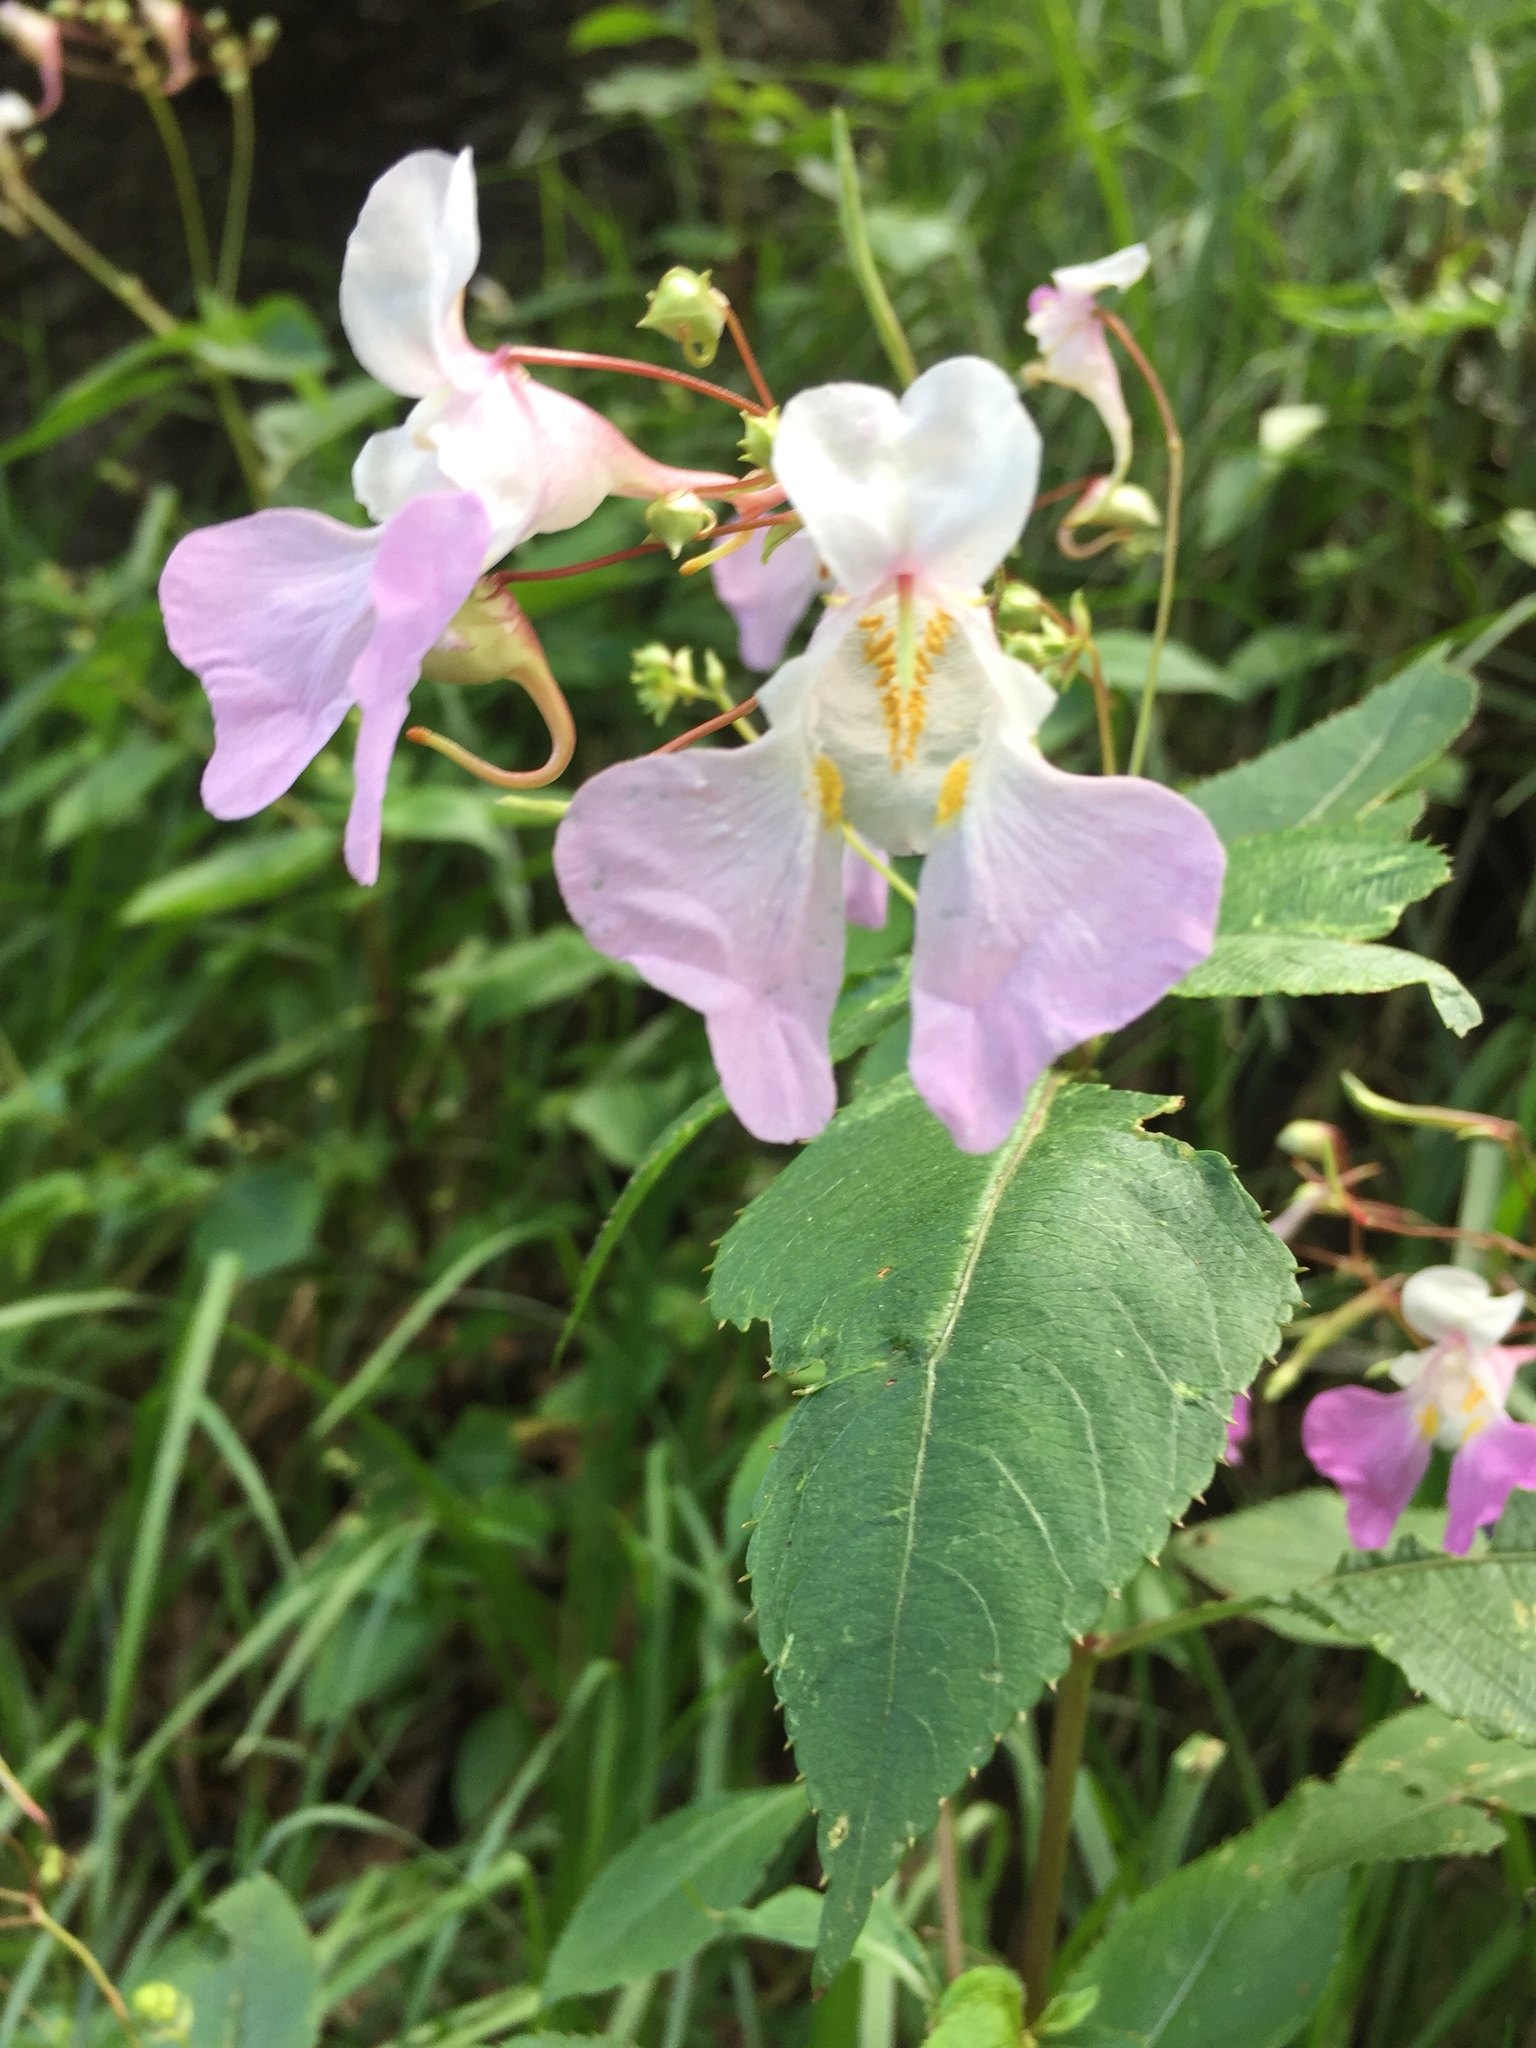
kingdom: Plantae
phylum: Tracheophyta
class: Magnoliopsida
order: Ericales
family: Balsaminaceae
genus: Impatiens
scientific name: Impatiens balfourii
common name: Balfour's touch-me-not
